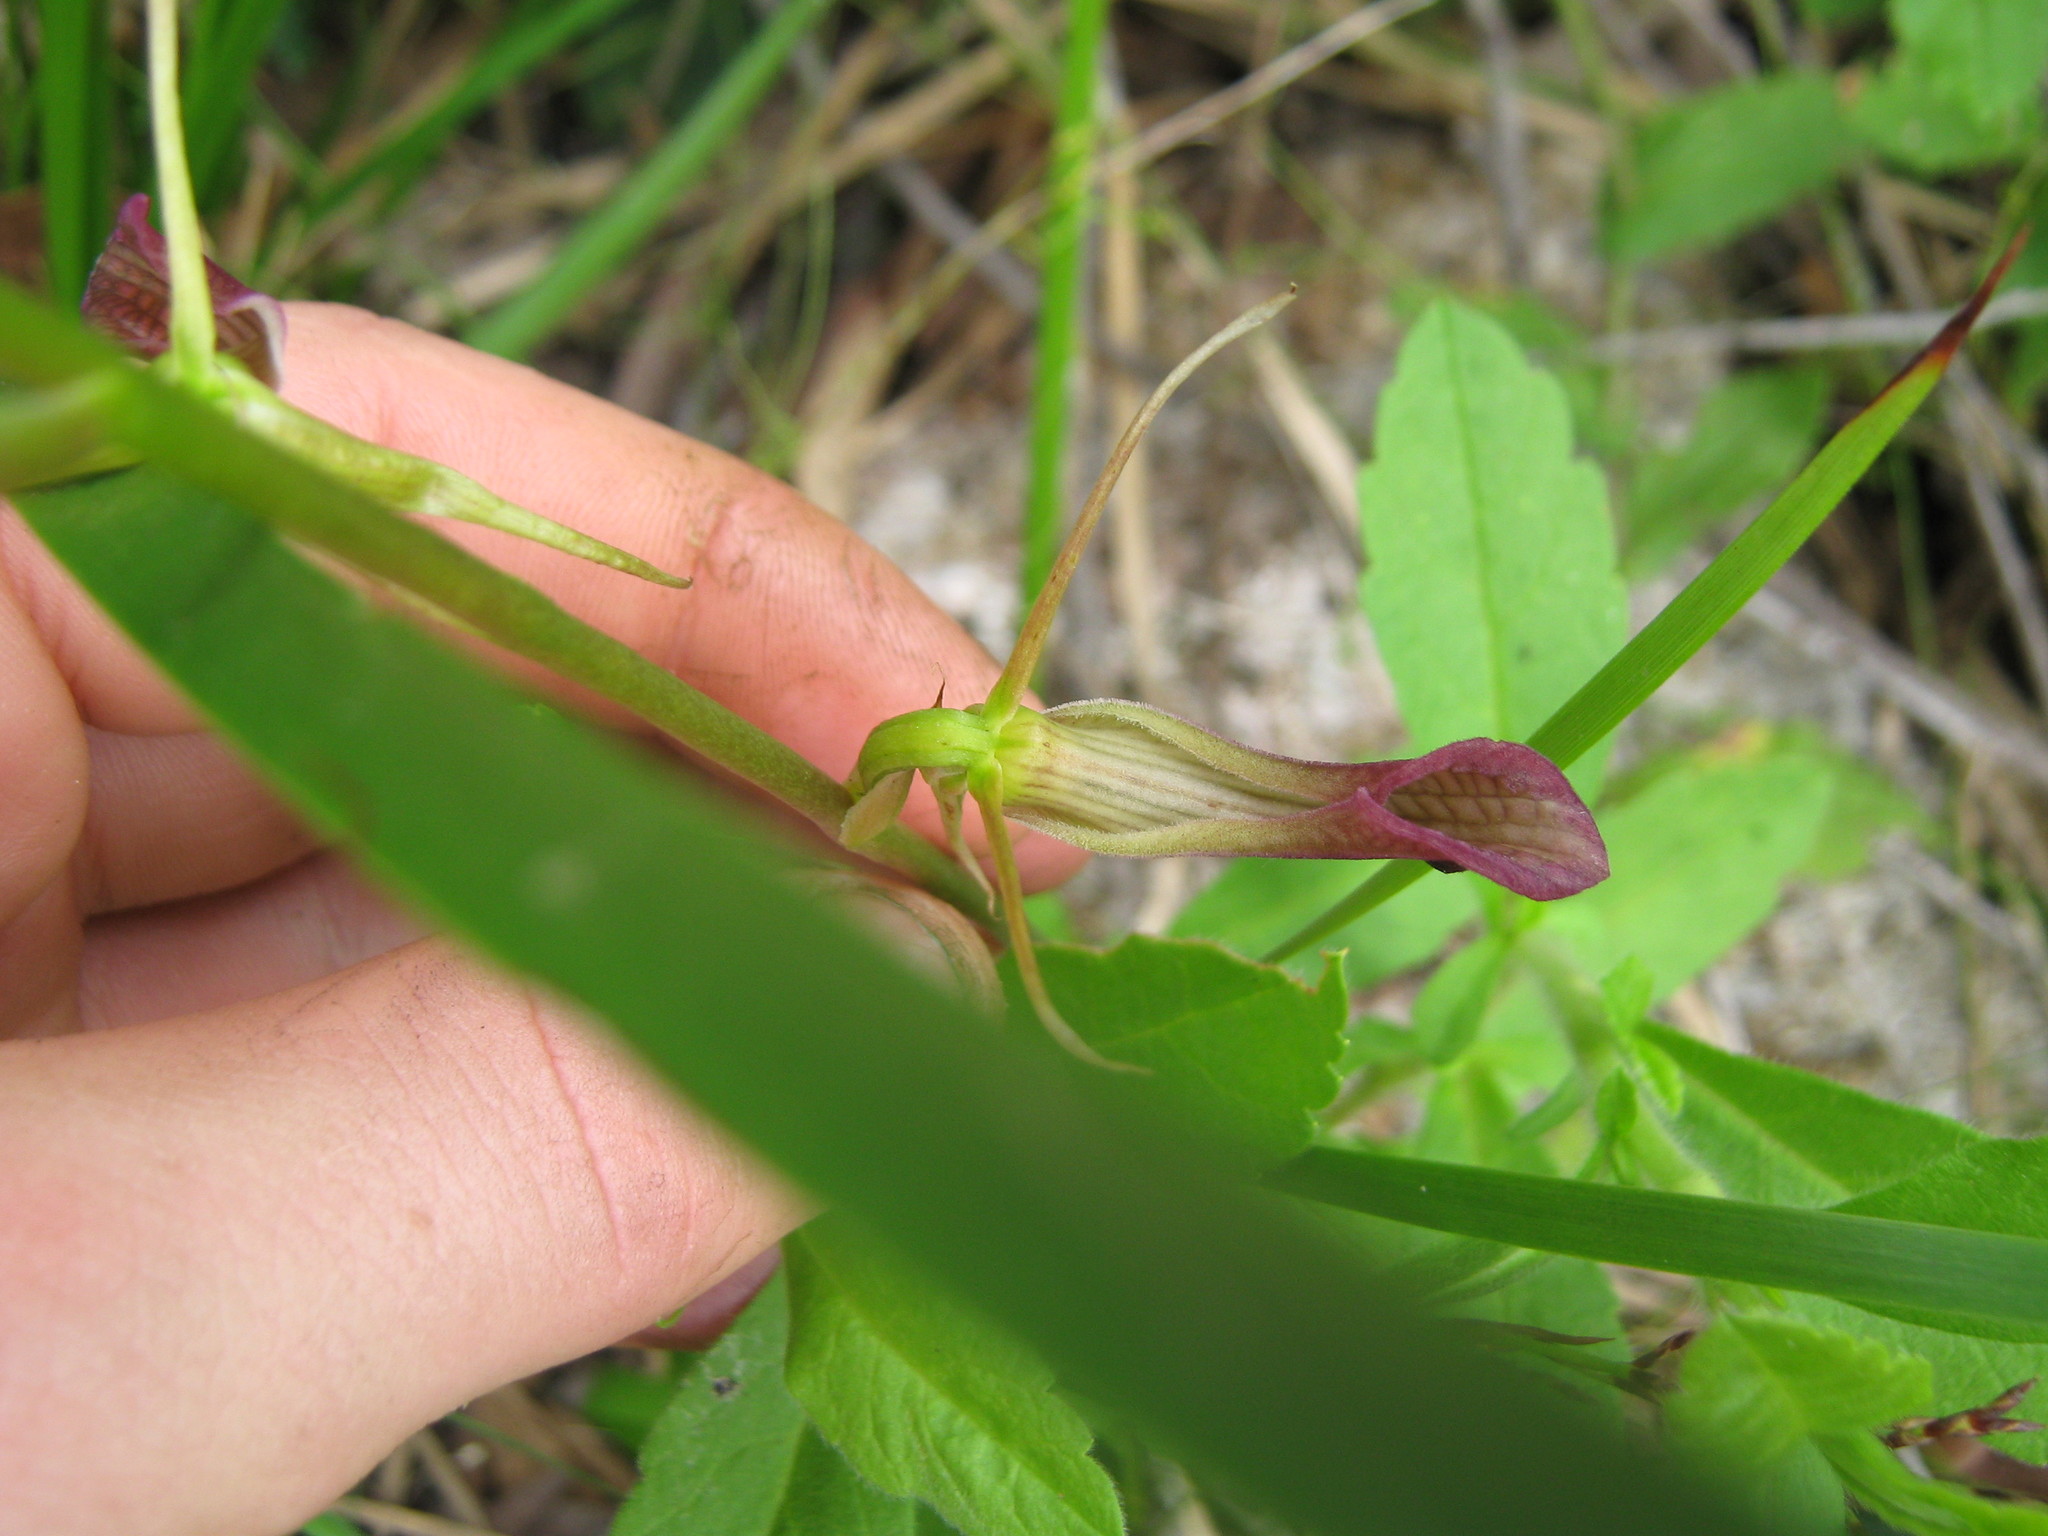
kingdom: Plantae
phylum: Tracheophyta
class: Liliopsida
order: Asparagales
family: Orchidaceae
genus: Cryptostylis
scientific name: Cryptostylis ovata
